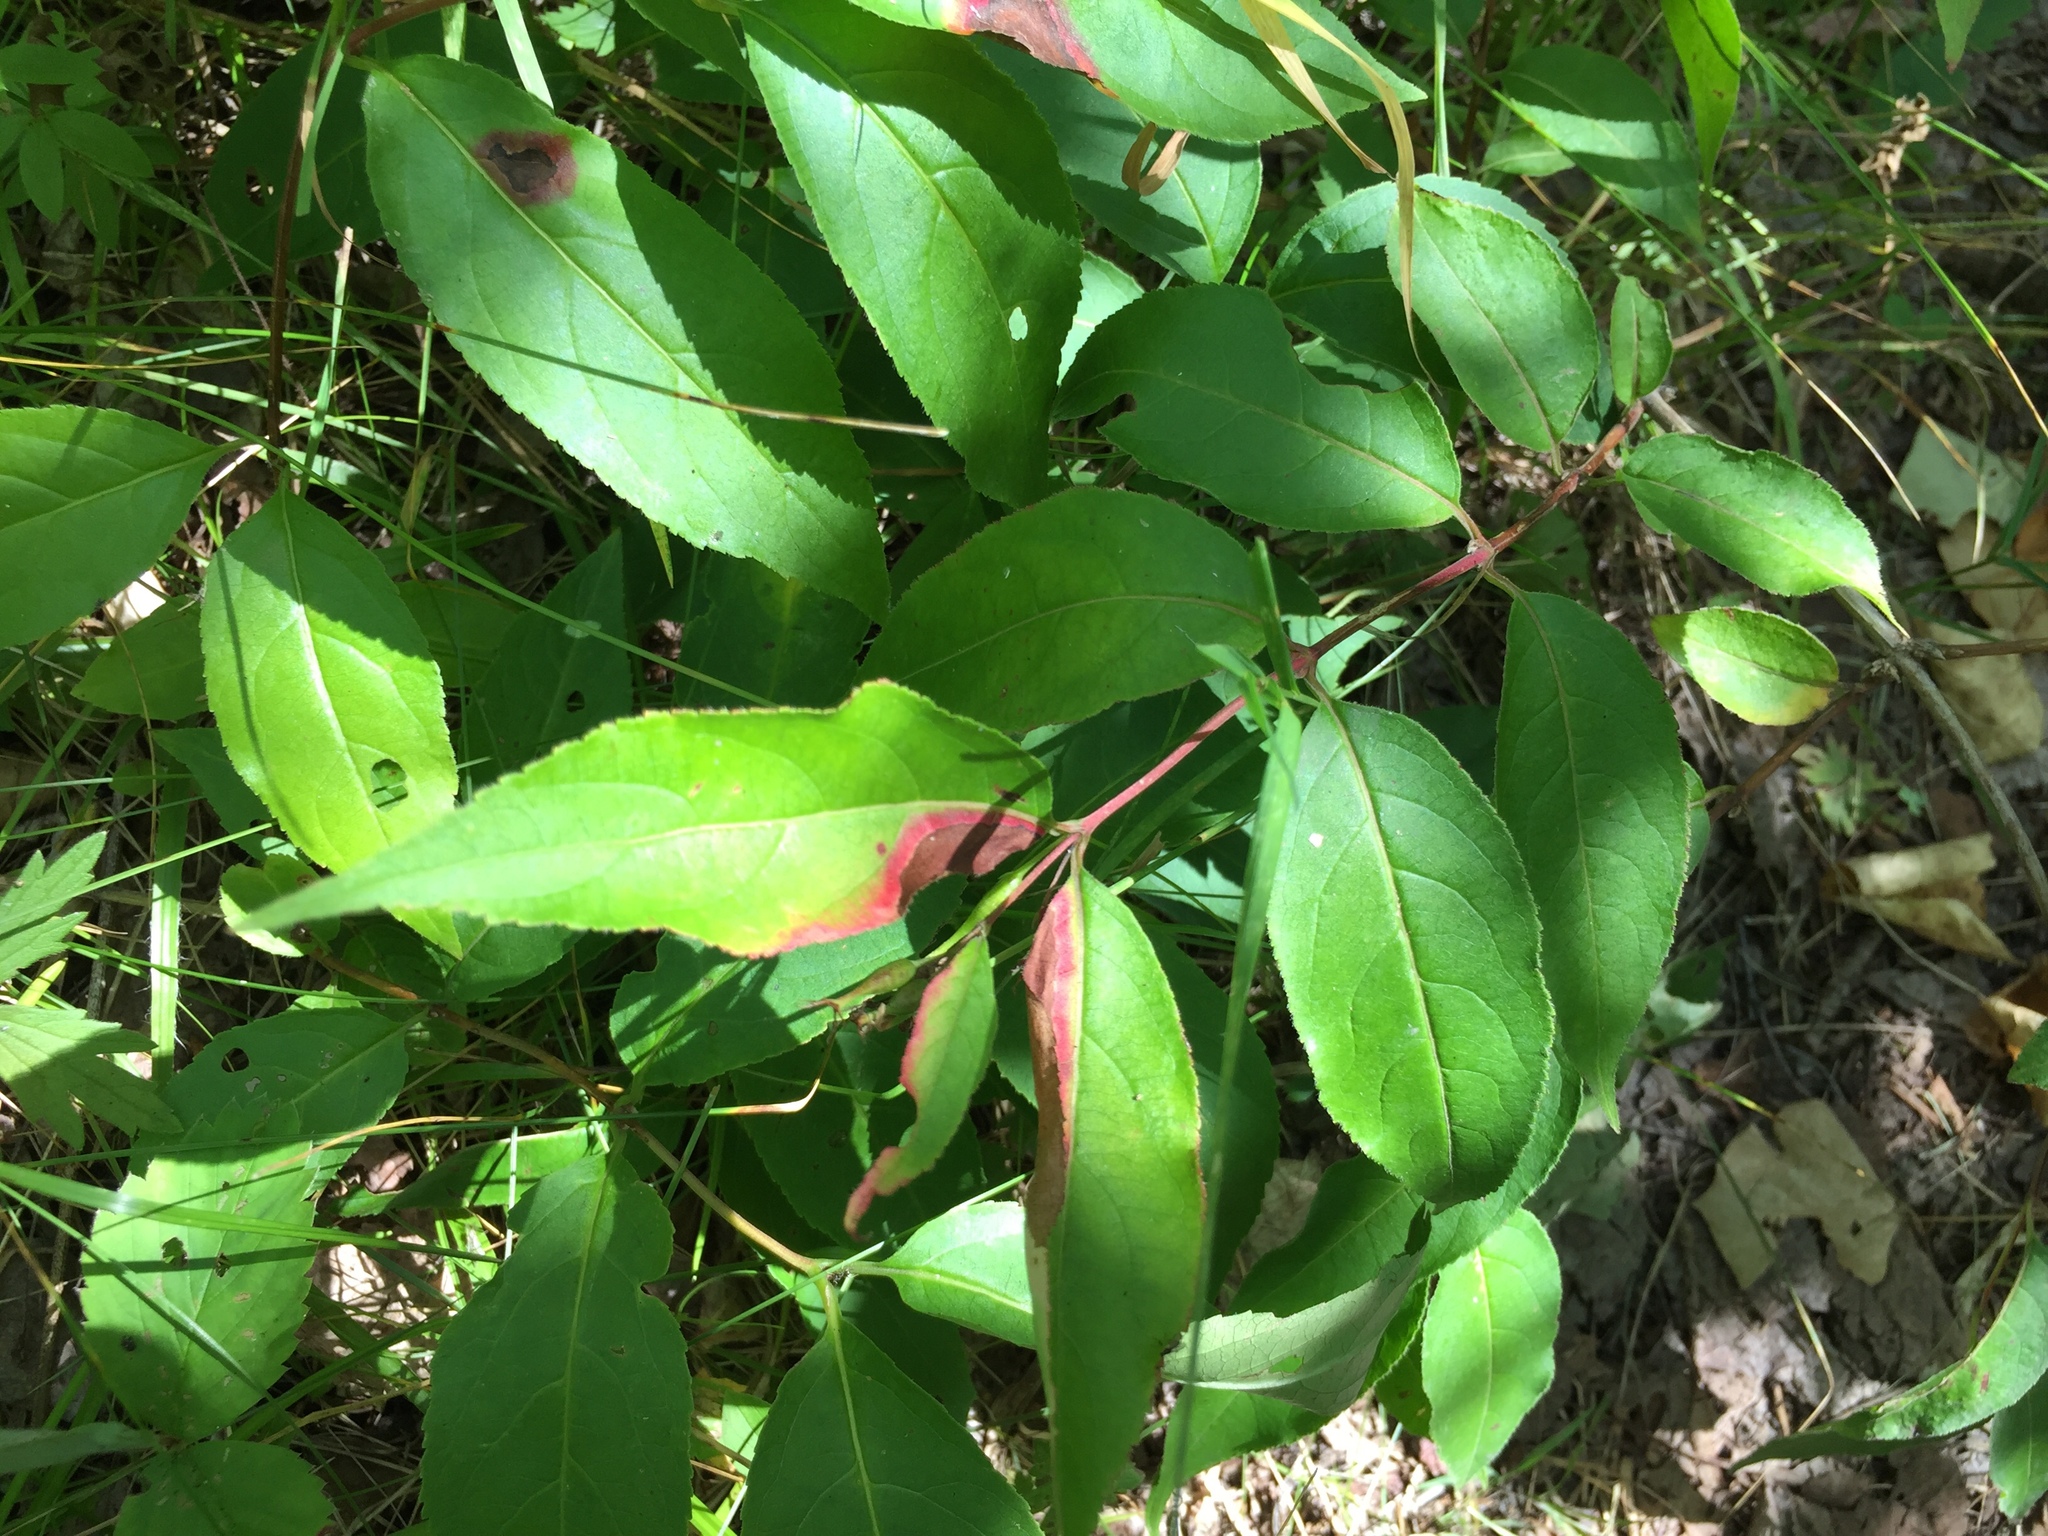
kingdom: Plantae
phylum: Tracheophyta
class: Magnoliopsida
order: Dipsacales
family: Caprifoliaceae
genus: Diervilla
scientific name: Diervilla lonicera
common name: Bush-honeysuckle
